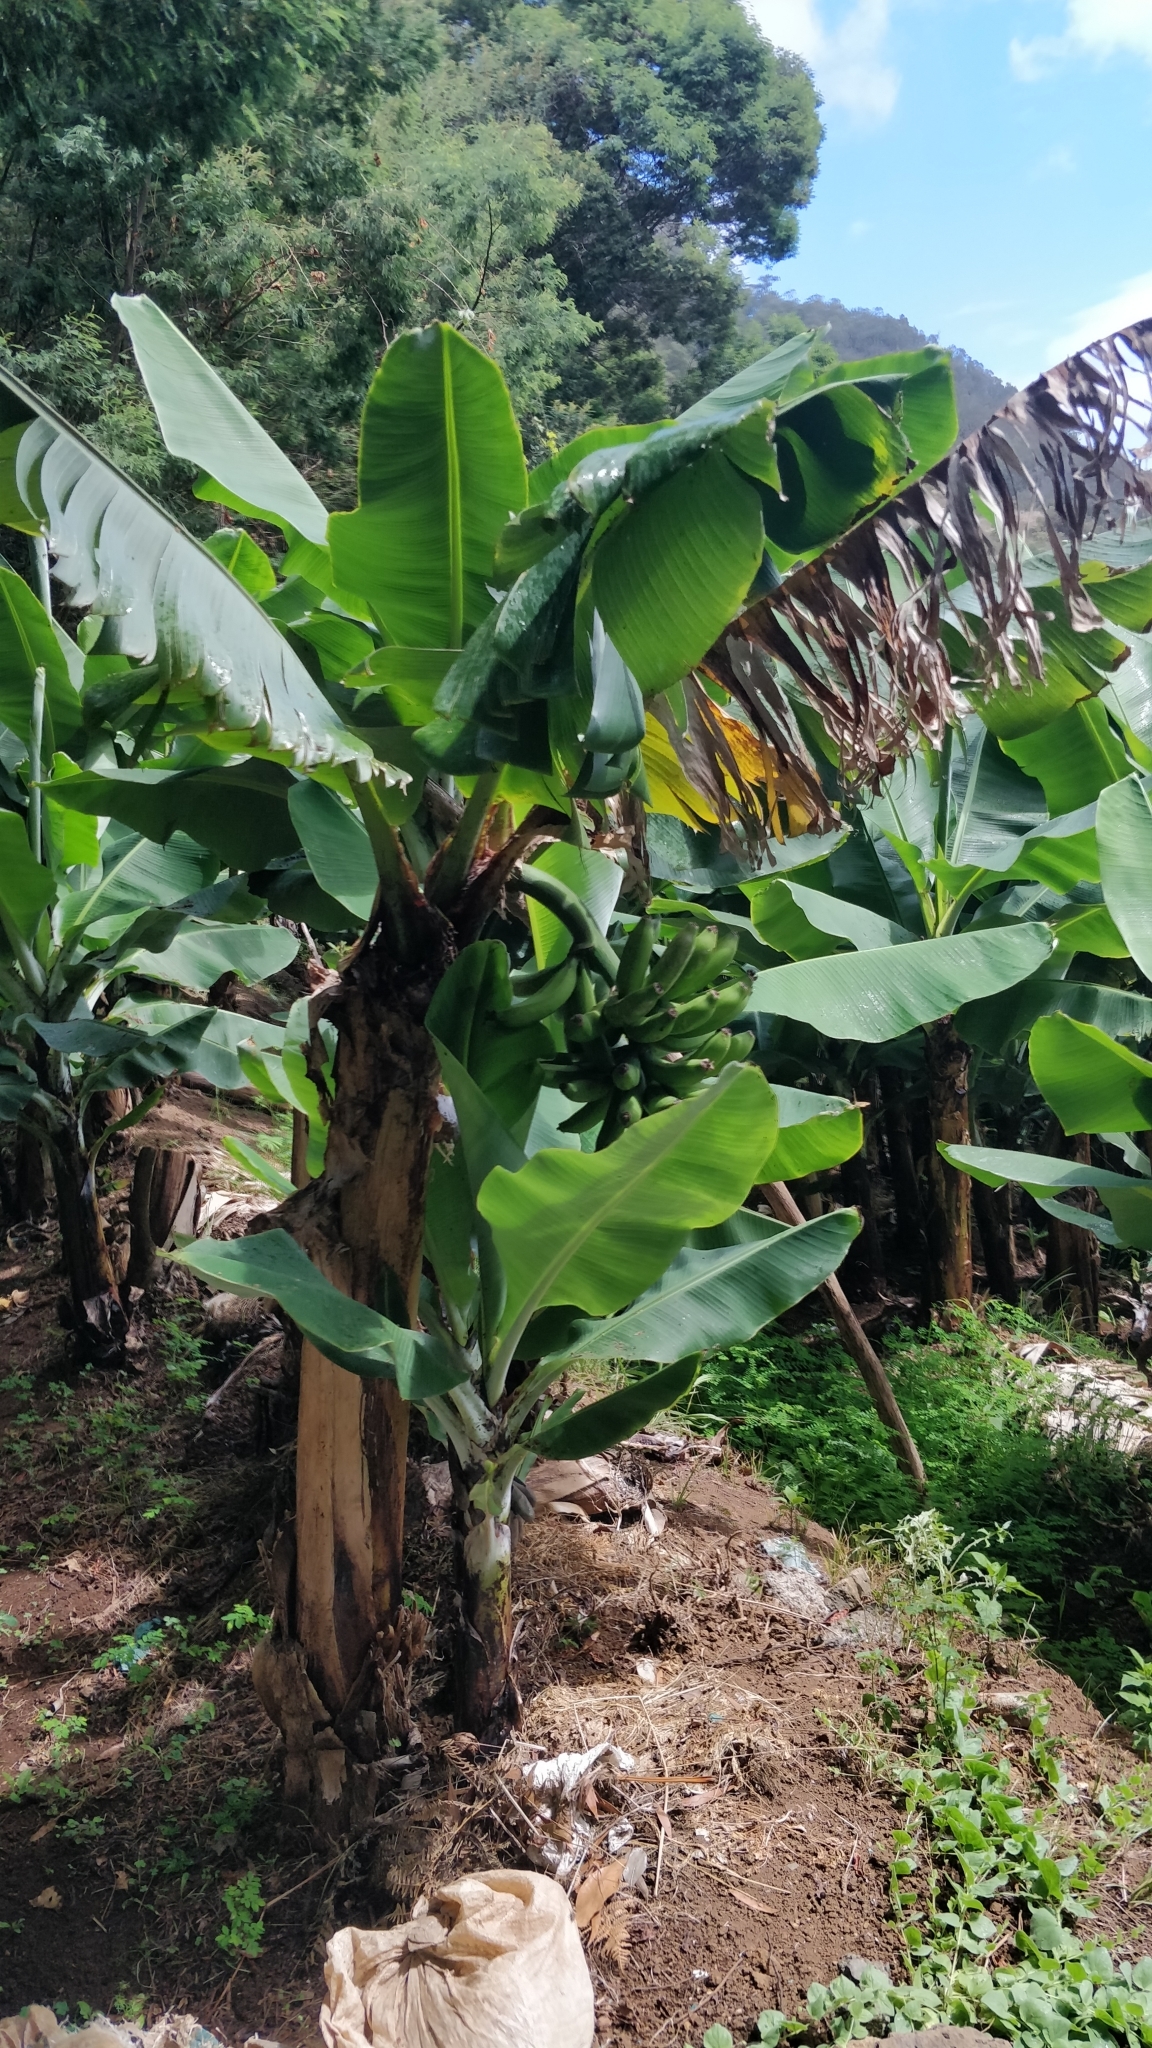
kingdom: Plantae
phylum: Tracheophyta
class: Liliopsida
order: Zingiberales
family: Musaceae
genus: Musa
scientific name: Musa acuminata
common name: Edible banana
